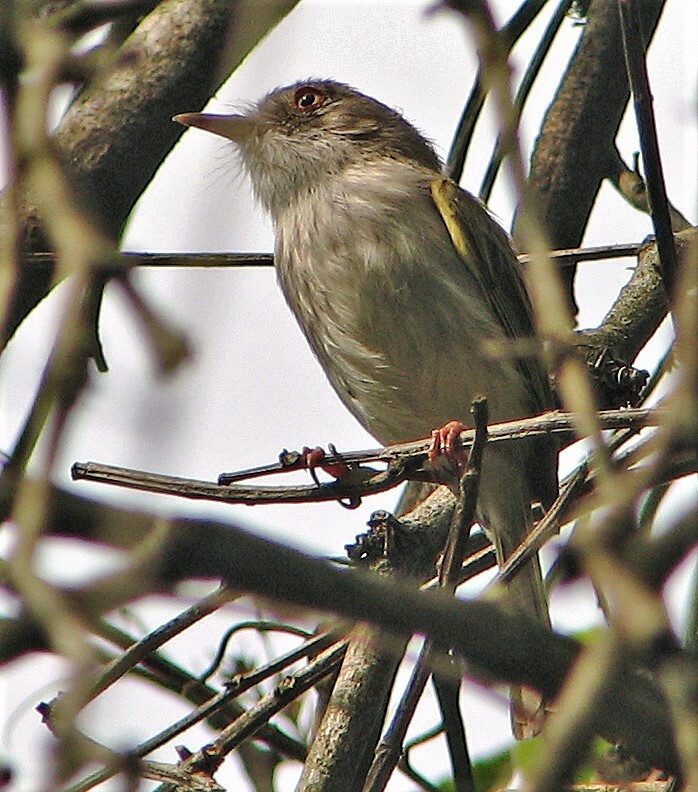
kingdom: Animalia
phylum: Chordata
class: Aves
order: Passeriformes
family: Tyrannidae
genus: Hemitriccus
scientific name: Hemitriccus margaritaceiventer
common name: Pearly-vented tody-tyrant
